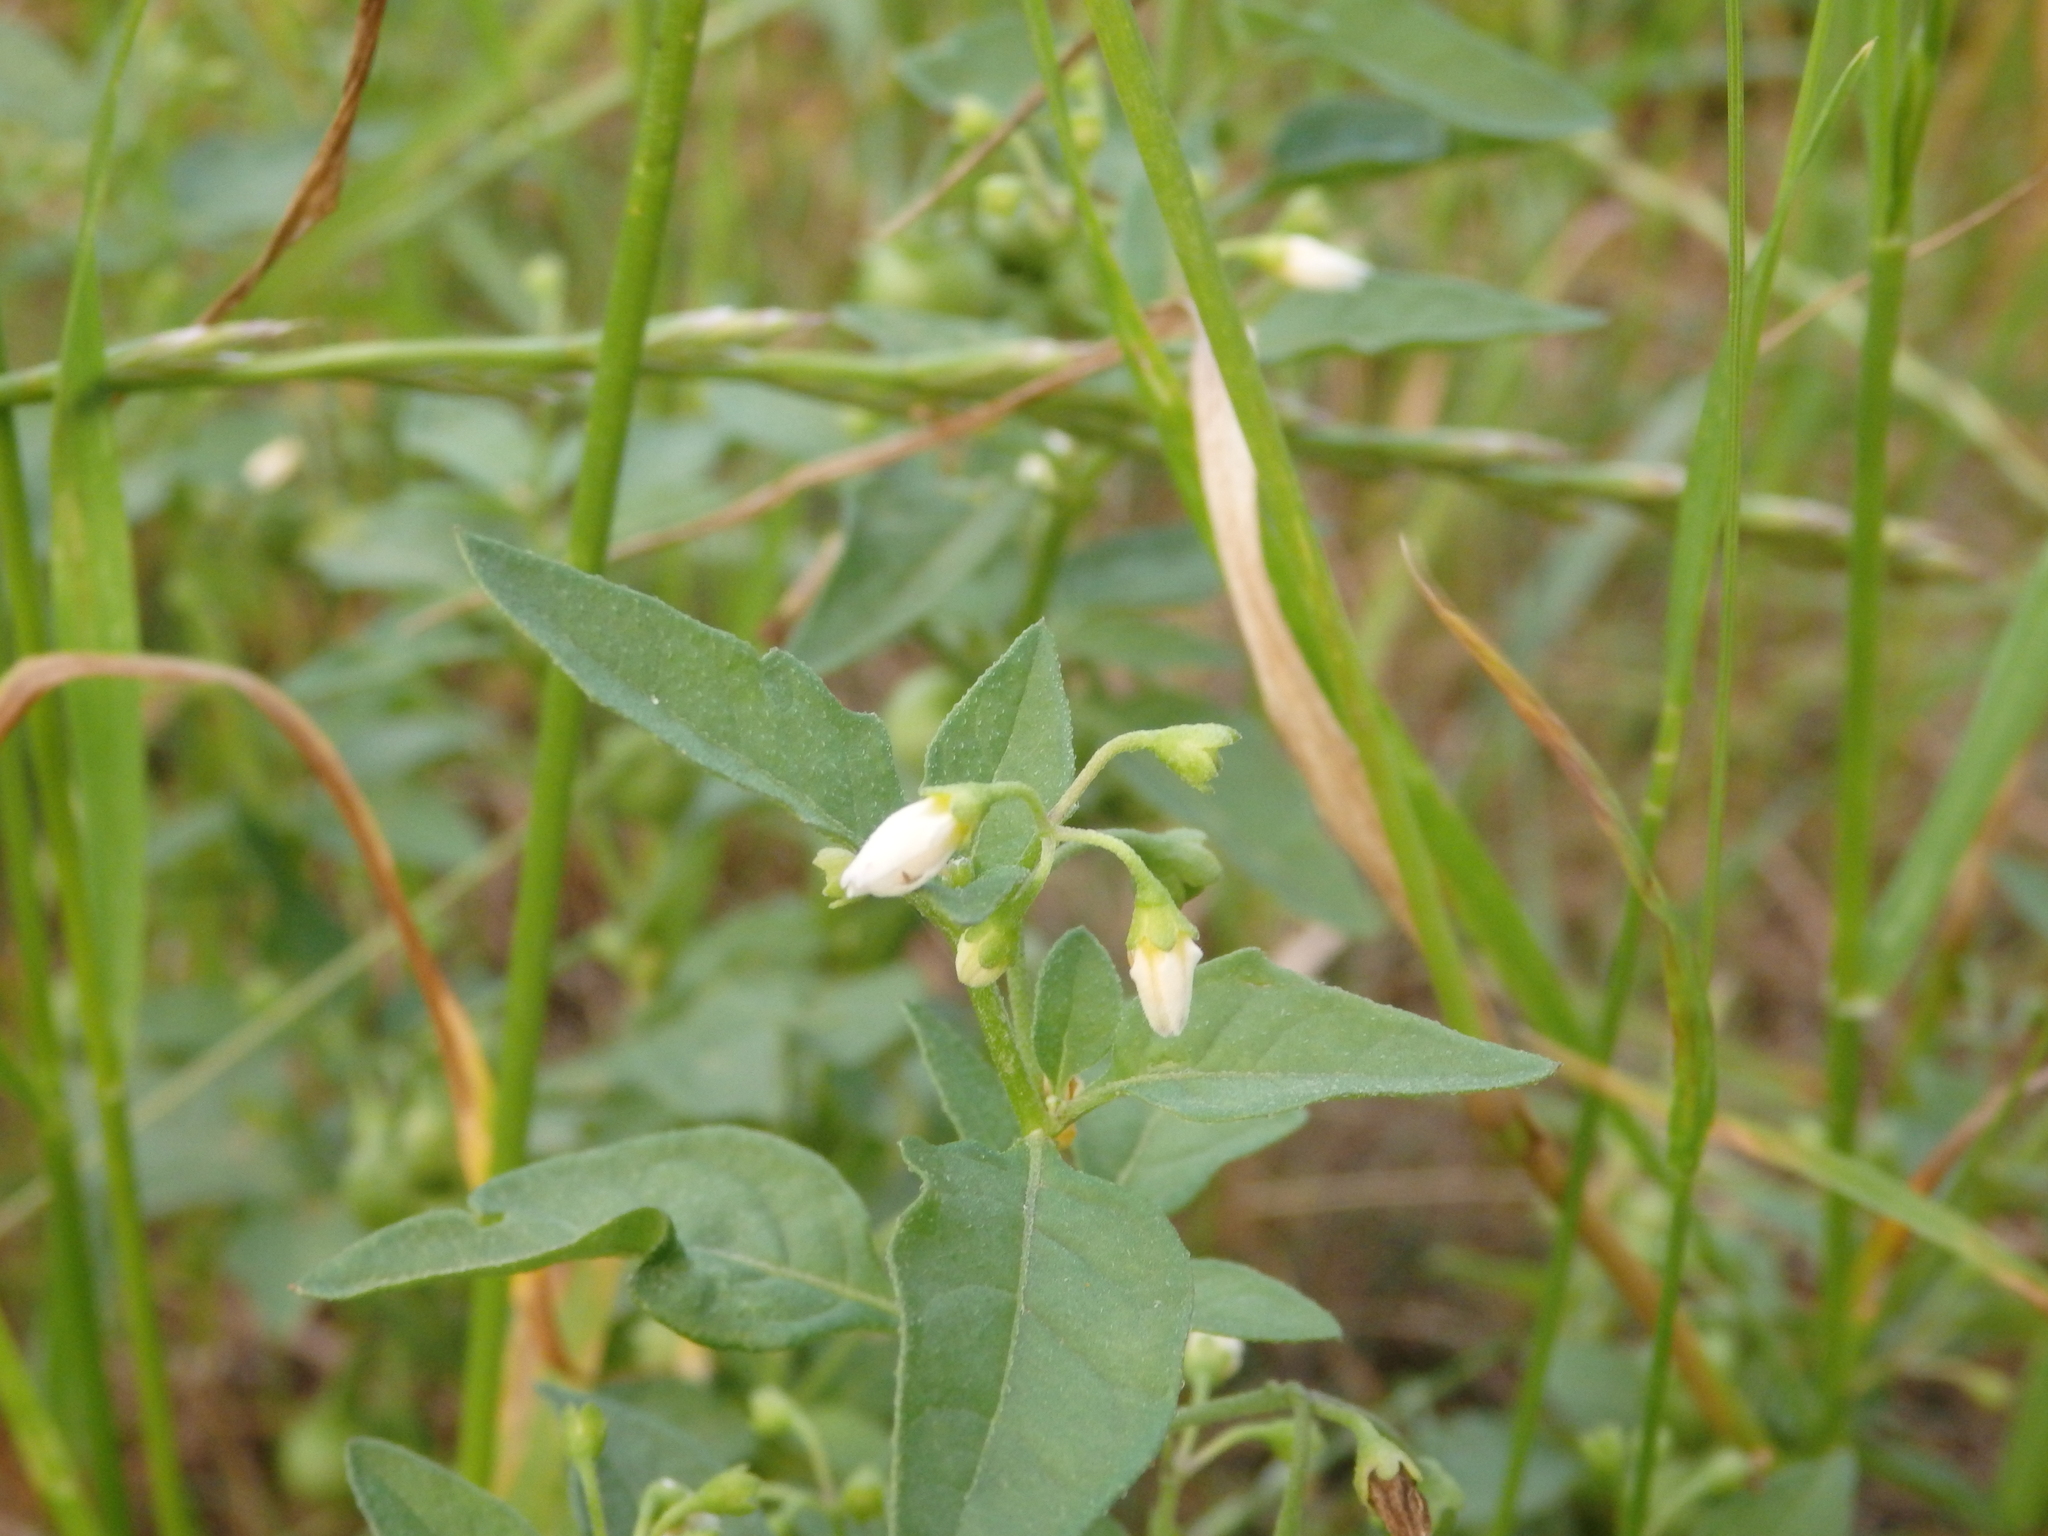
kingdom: Plantae
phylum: Tracheophyta
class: Magnoliopsida
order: Solanales
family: Solanaceae
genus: Solanum
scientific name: Solanum nigrum
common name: Black nightshade
